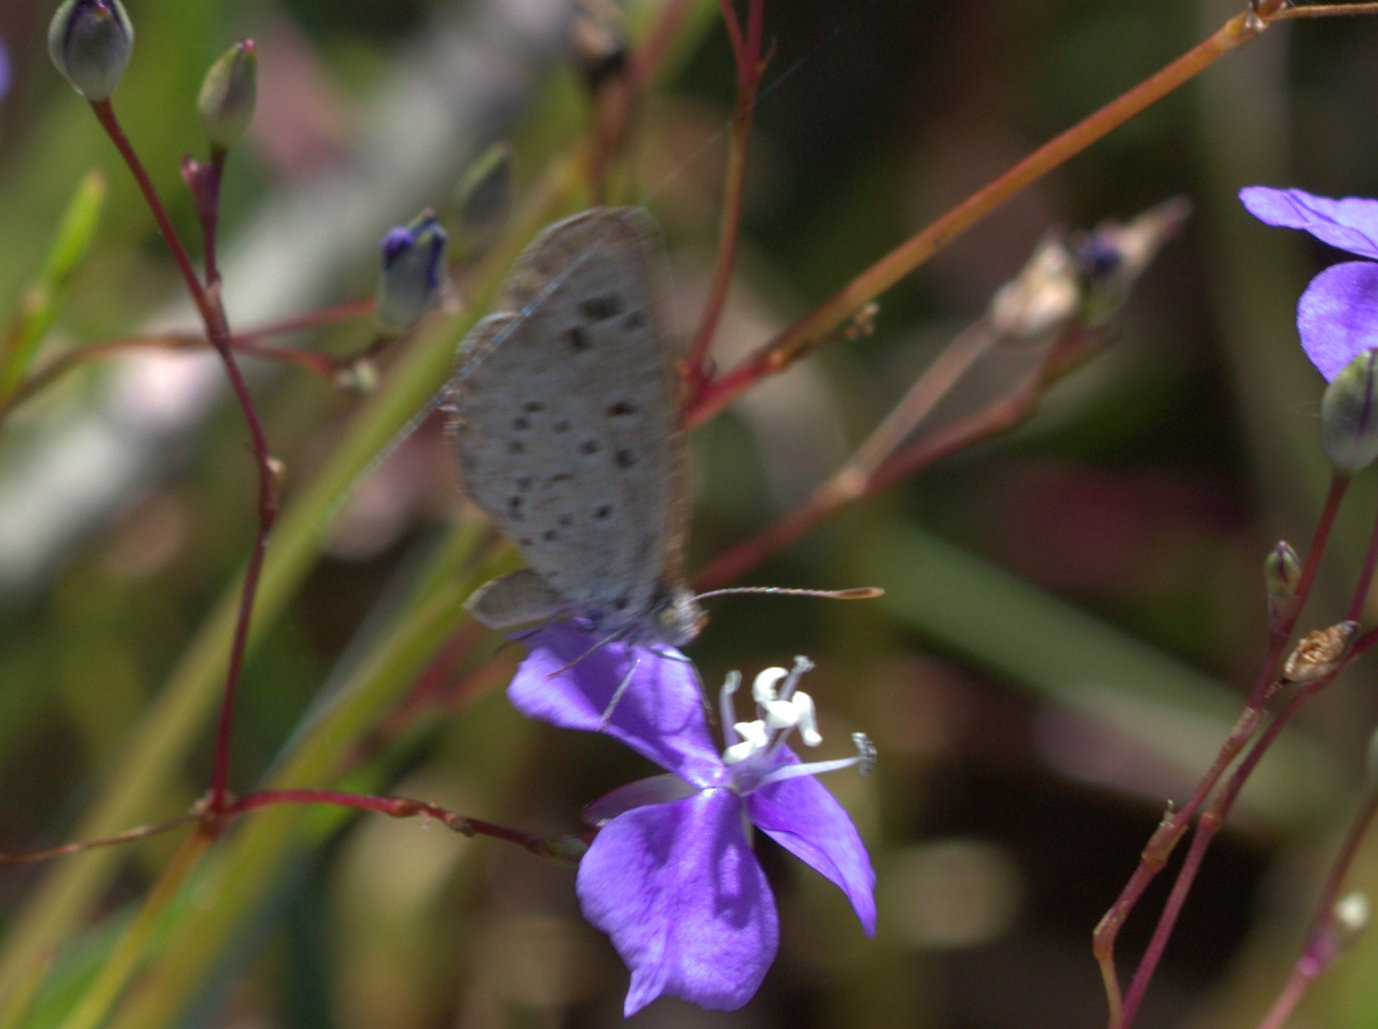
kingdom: Animalia
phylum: Arthropoda
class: Insecta
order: Lepidoptera
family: Lycaenidae
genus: Pseudozizeeria
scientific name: Pseudozizeeria maha
